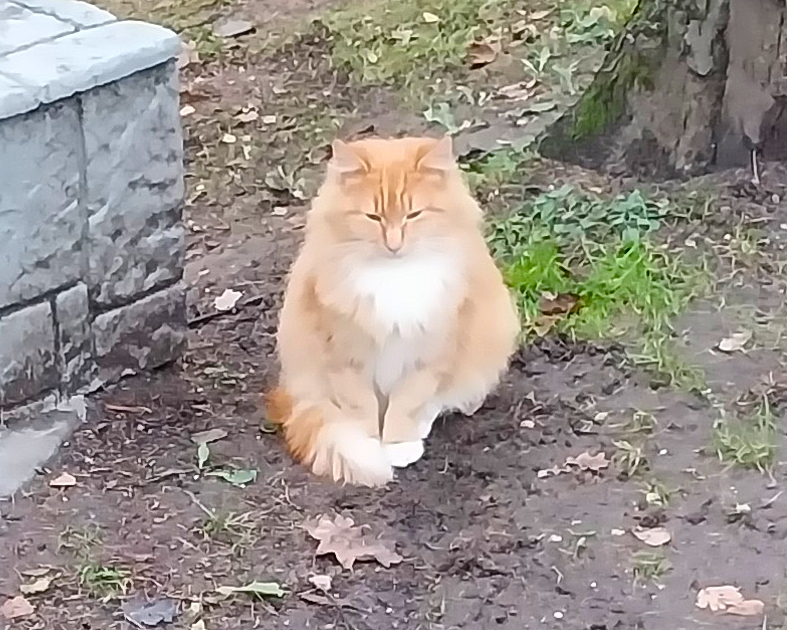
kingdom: Animalia
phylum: Chordata
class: Mammalia
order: Carnivora
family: Felidae
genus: Felis
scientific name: Felis catus
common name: Domestic cat
